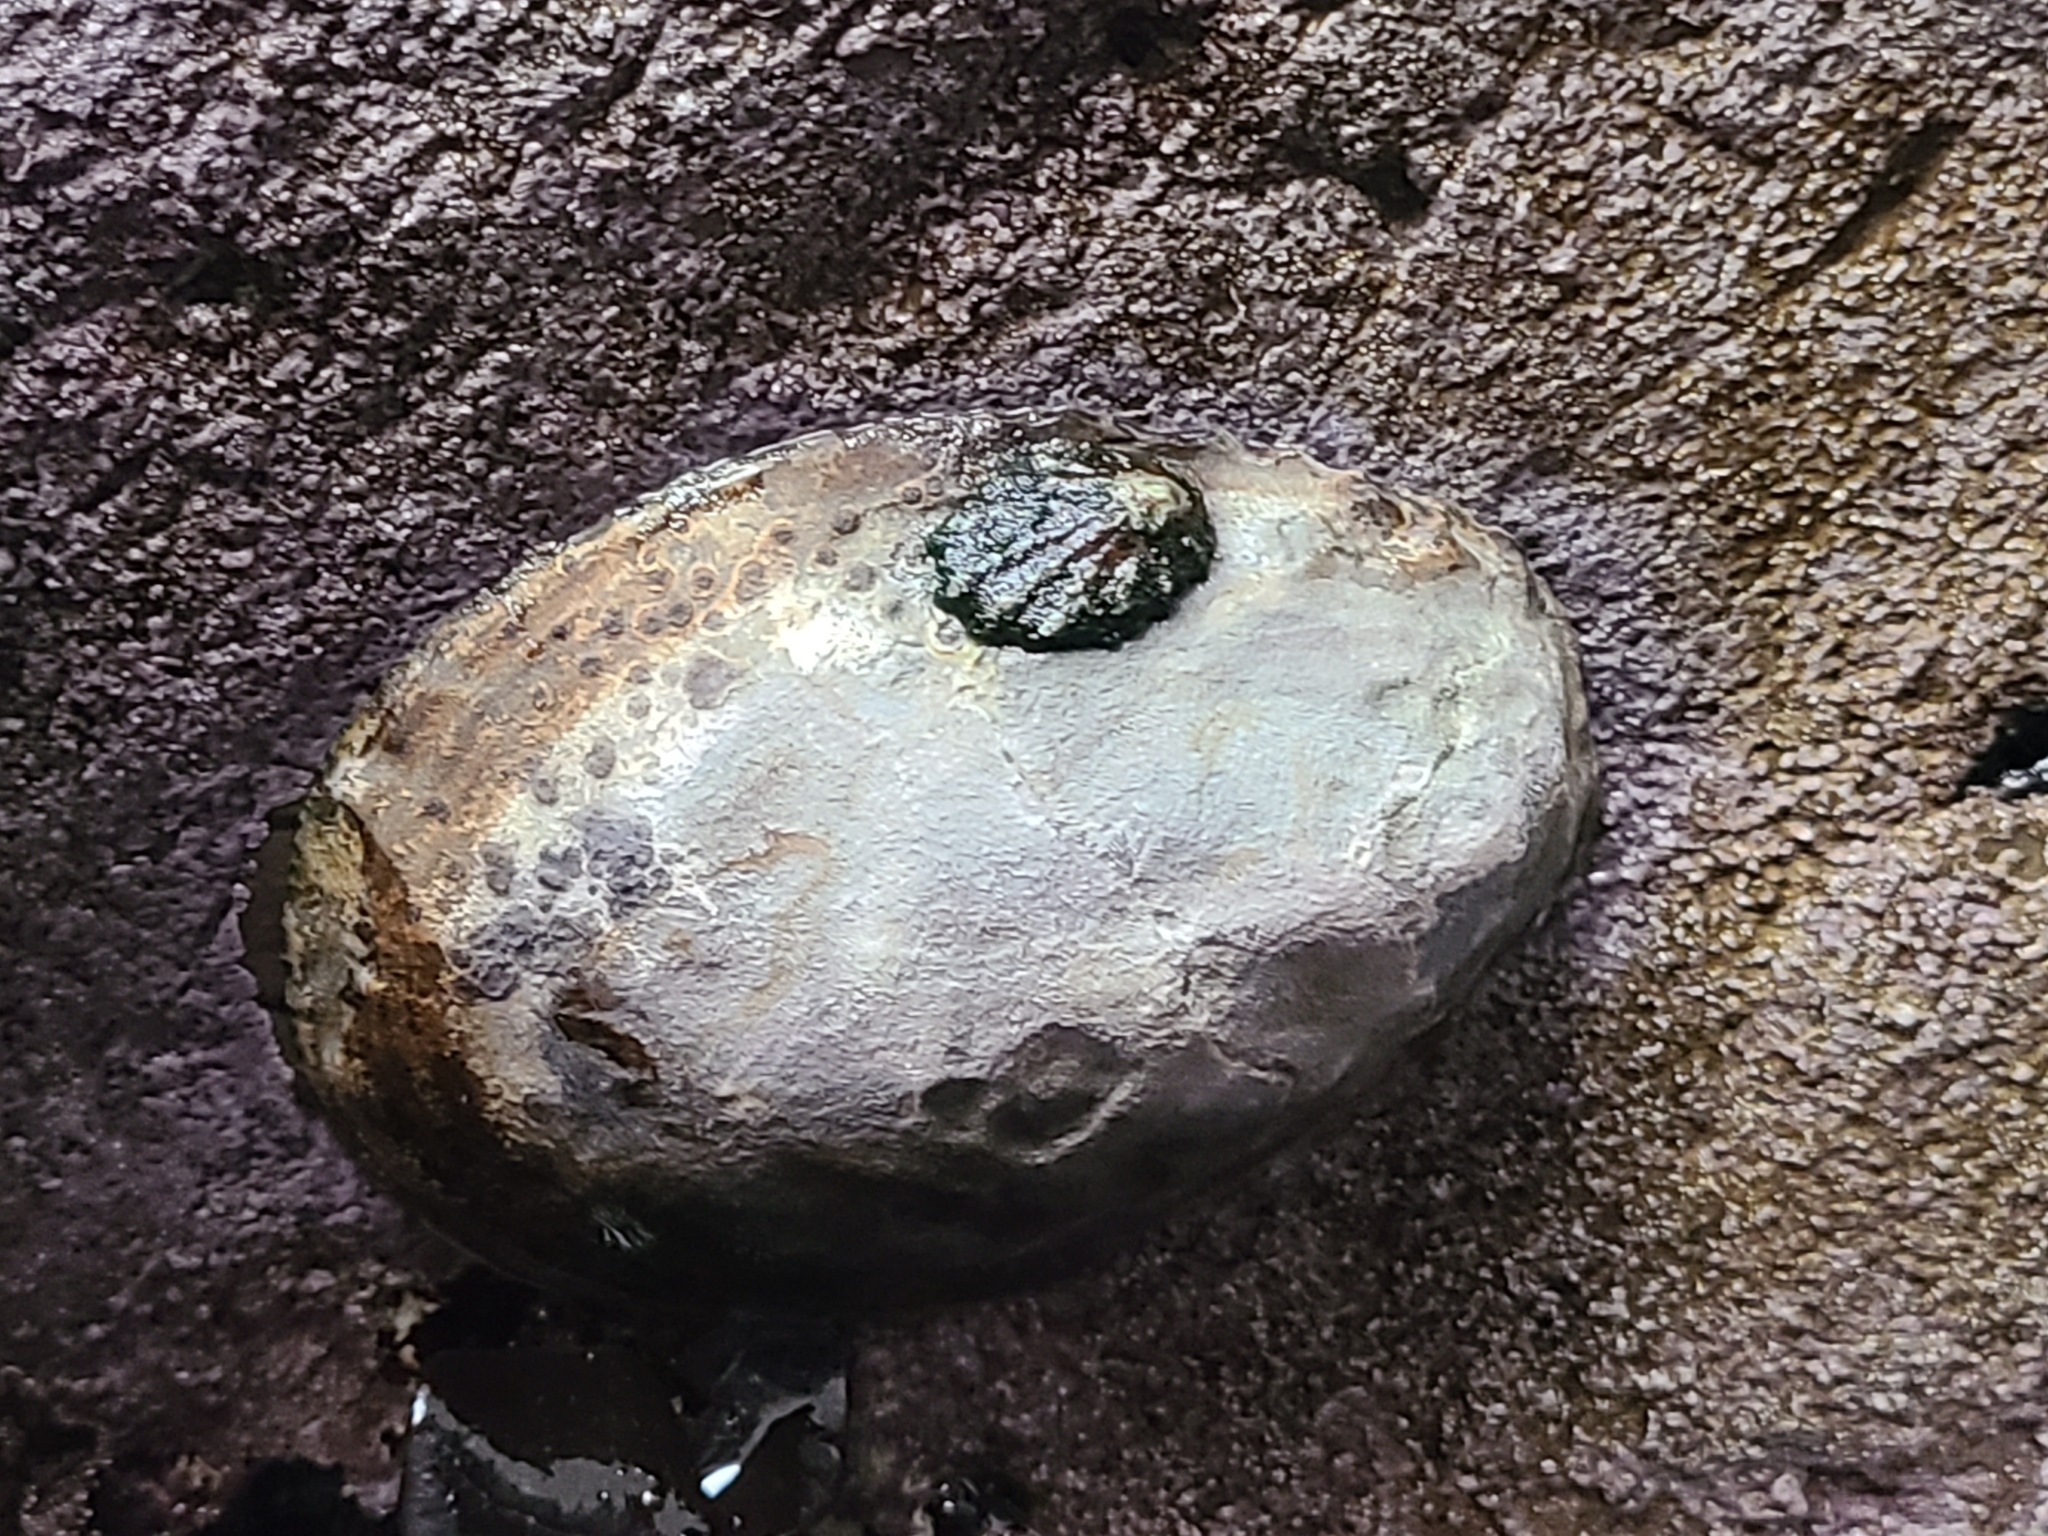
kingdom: Animalia
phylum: Mollusca
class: Gastropoda
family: Lottiidae
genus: Lottia
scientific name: Lottia gigantea
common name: Owl limpet
